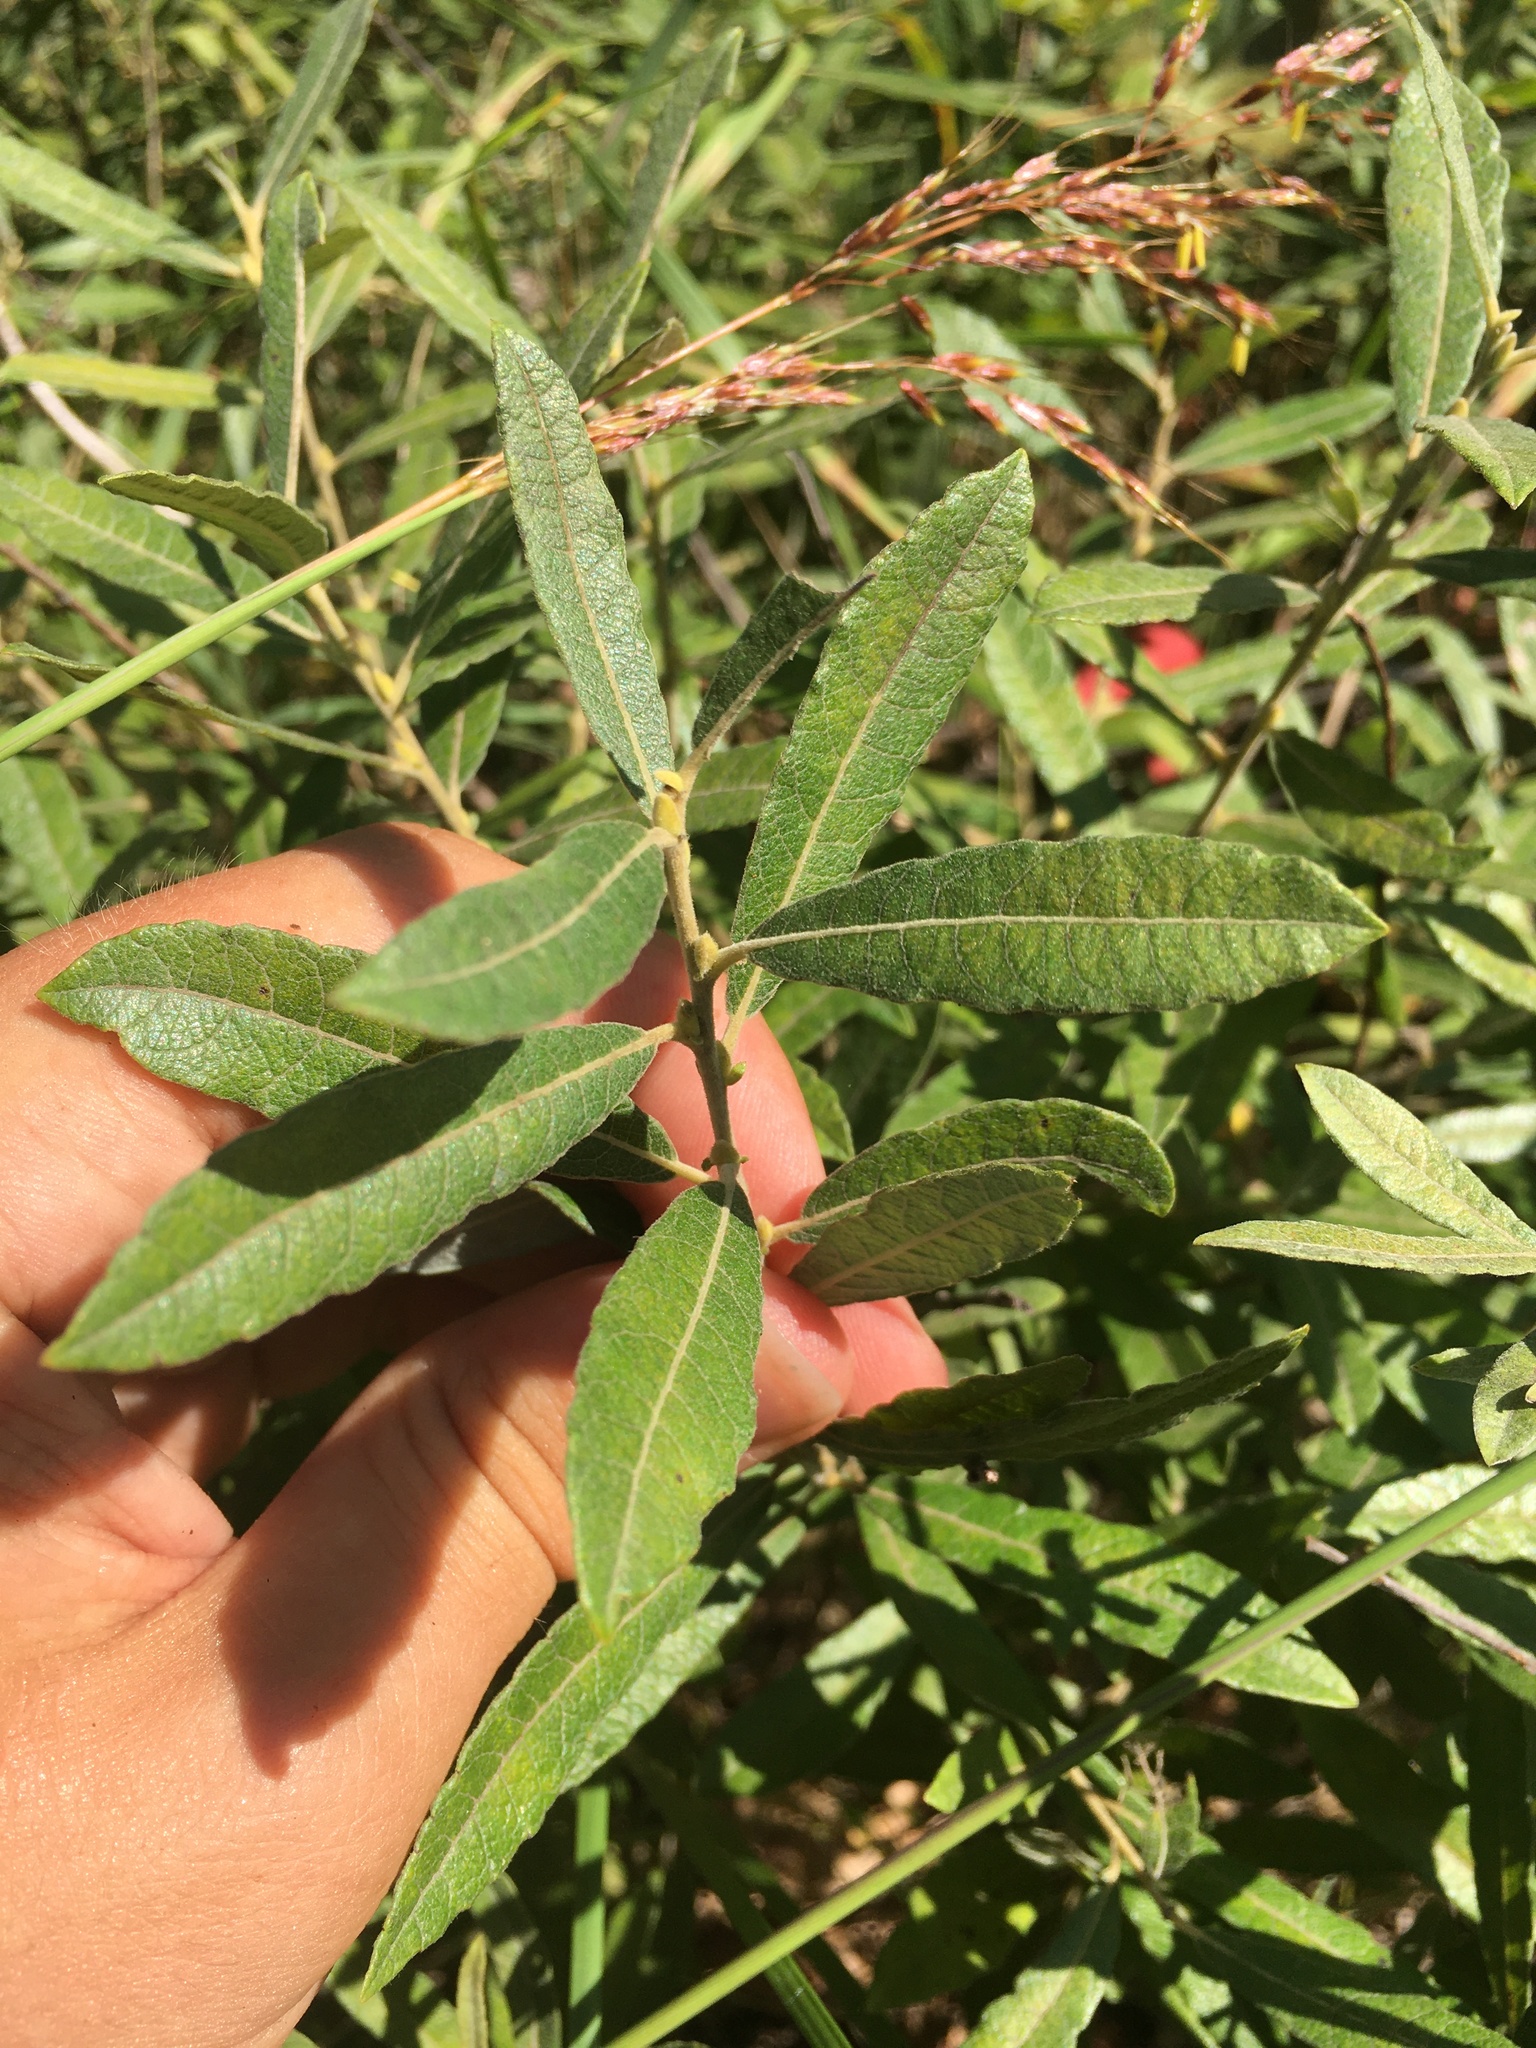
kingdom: Plantae
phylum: Tracheophyta
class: Magnoliopsida
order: Malpighiales
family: Salicaceae
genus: Salix
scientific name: Salix humilis
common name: Prairie willow
